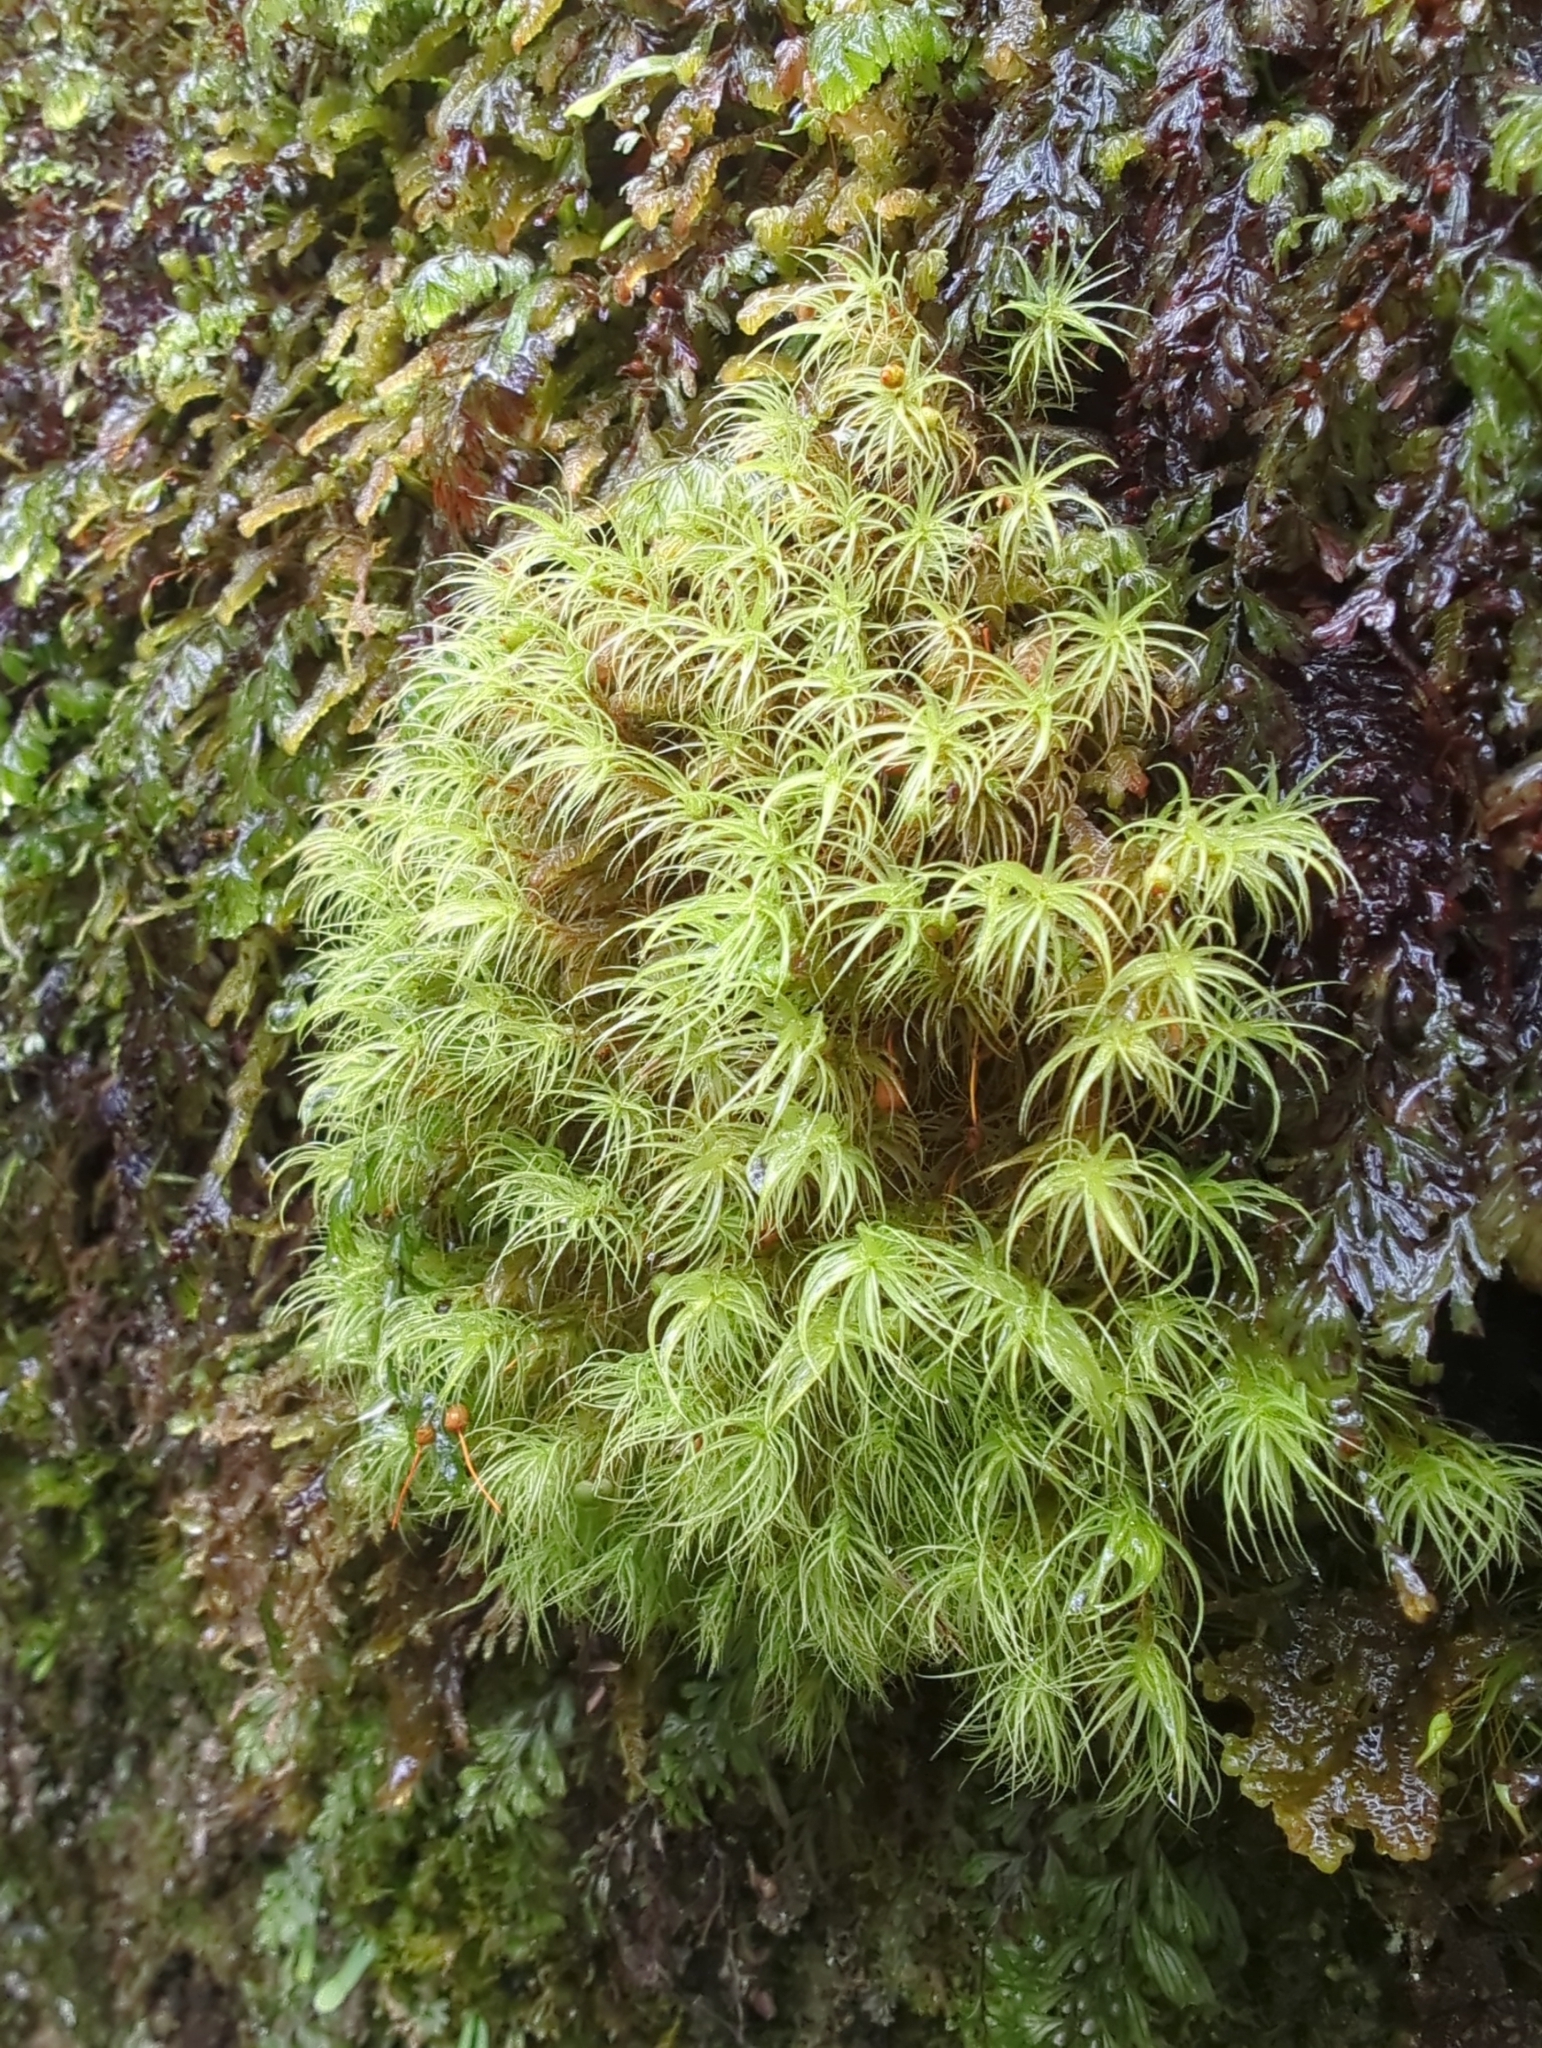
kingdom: Plantae
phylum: Bryophyta
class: Bryopsida
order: Bartramiales
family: Bartramiaceae
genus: Bartramia
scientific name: Bartramia mossmaniana
